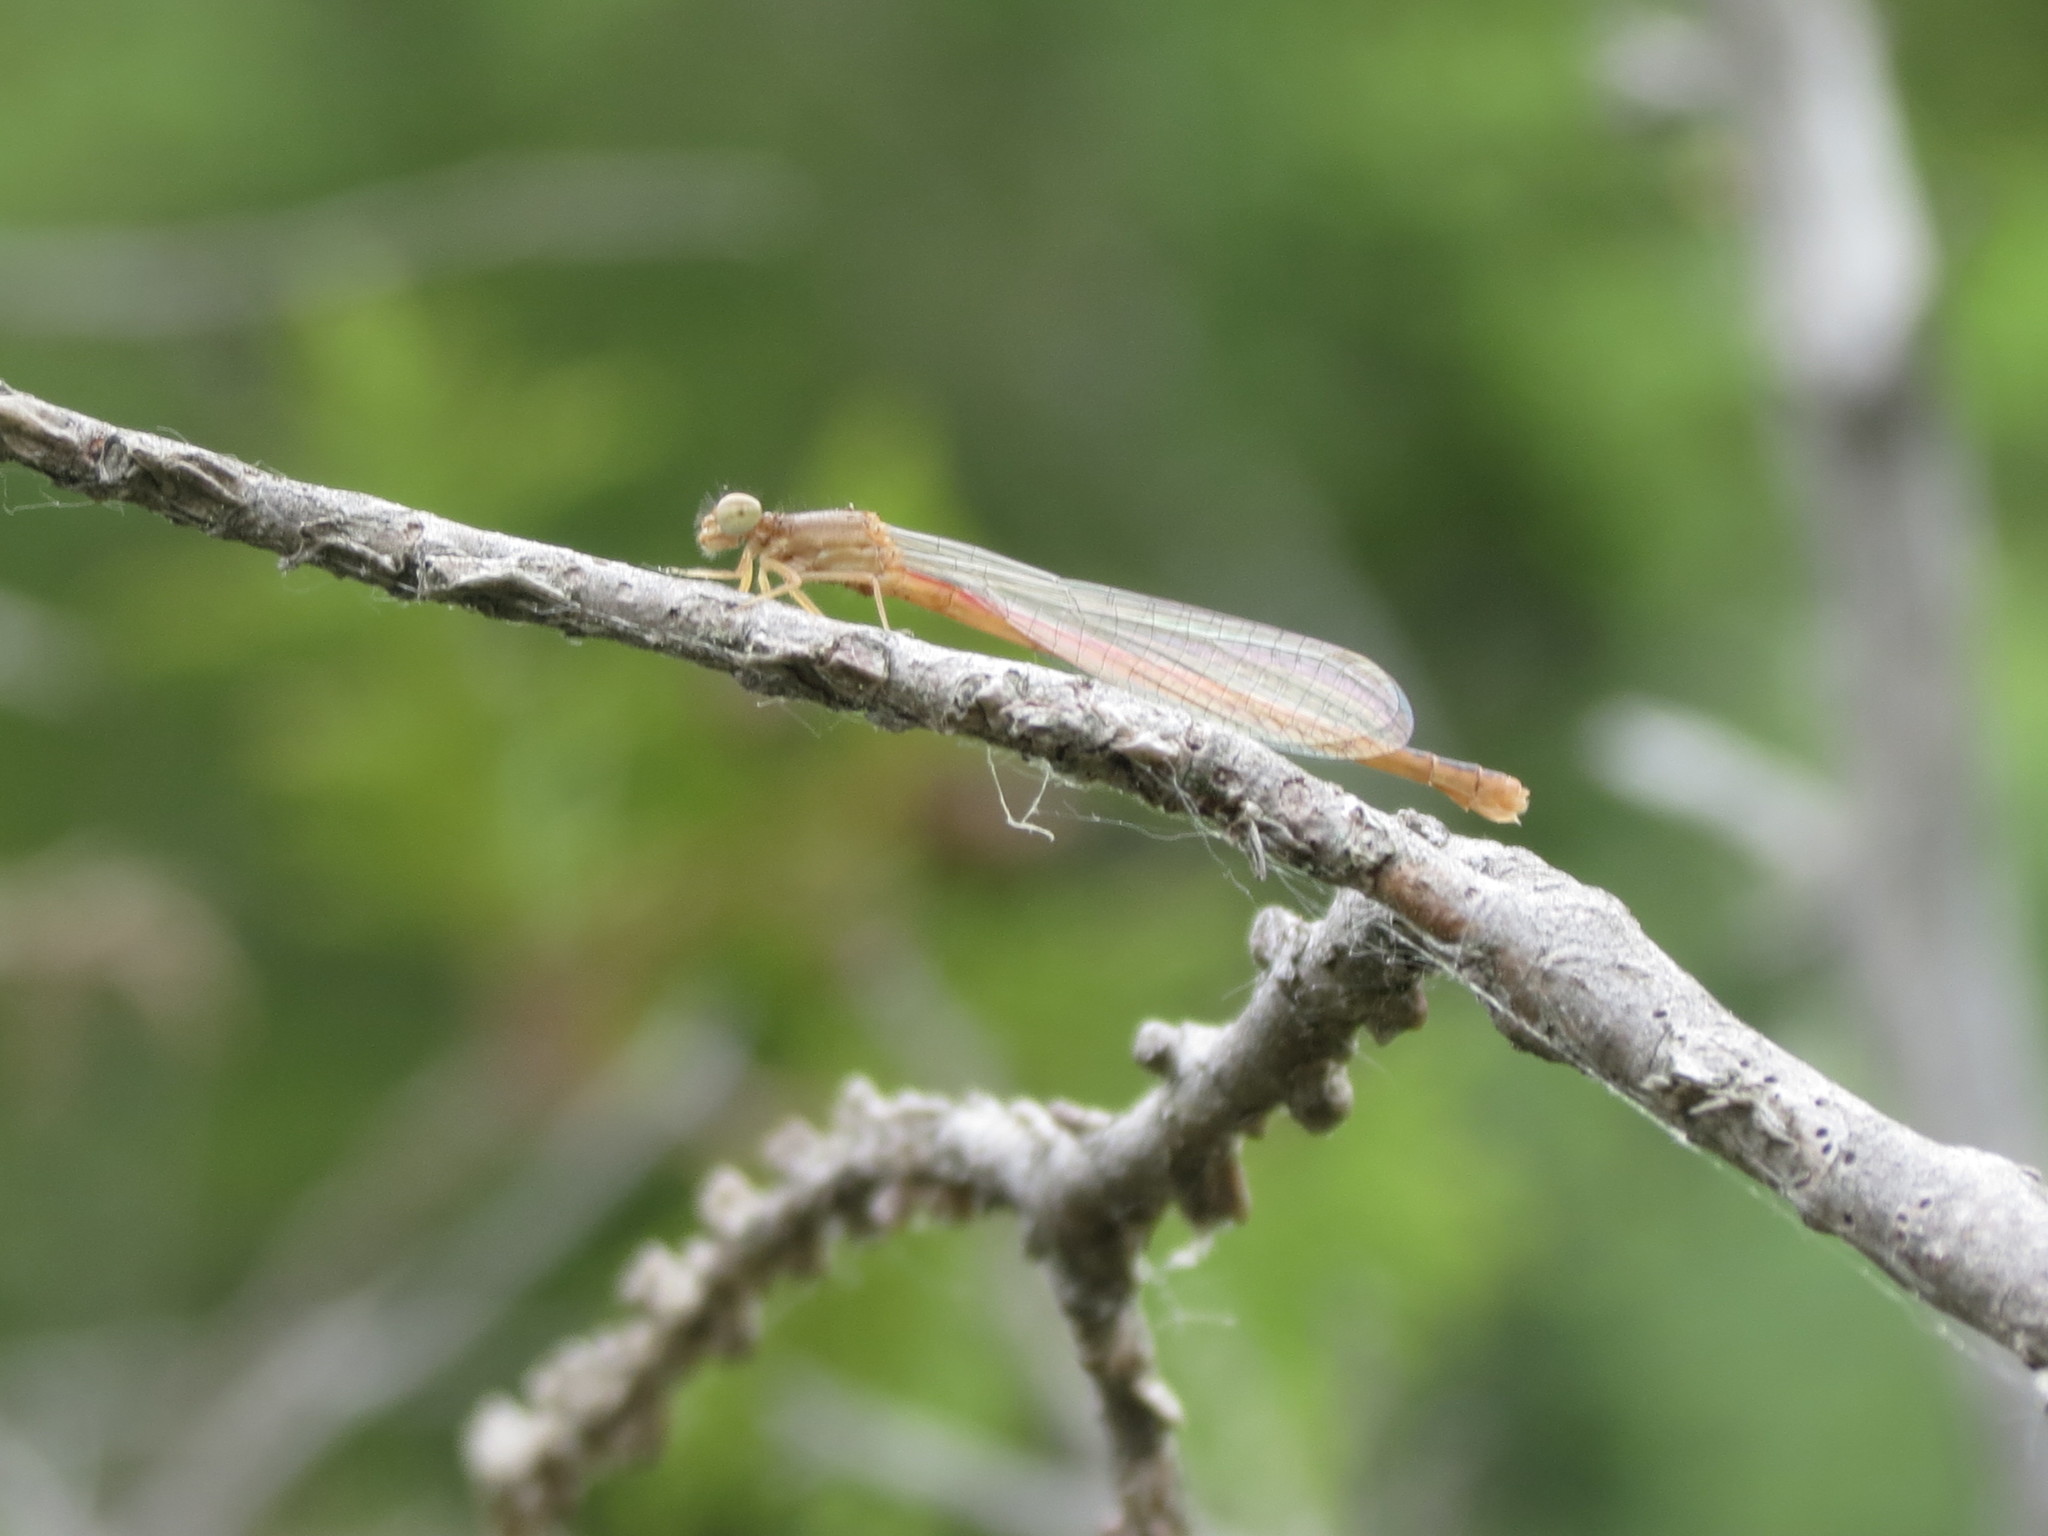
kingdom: Animalia
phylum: Arthropoda
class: Insecta
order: Odonata
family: Coenagrionidae
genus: Amphiagrion
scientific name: Amphiagrion saucium
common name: Eastern red damsel
